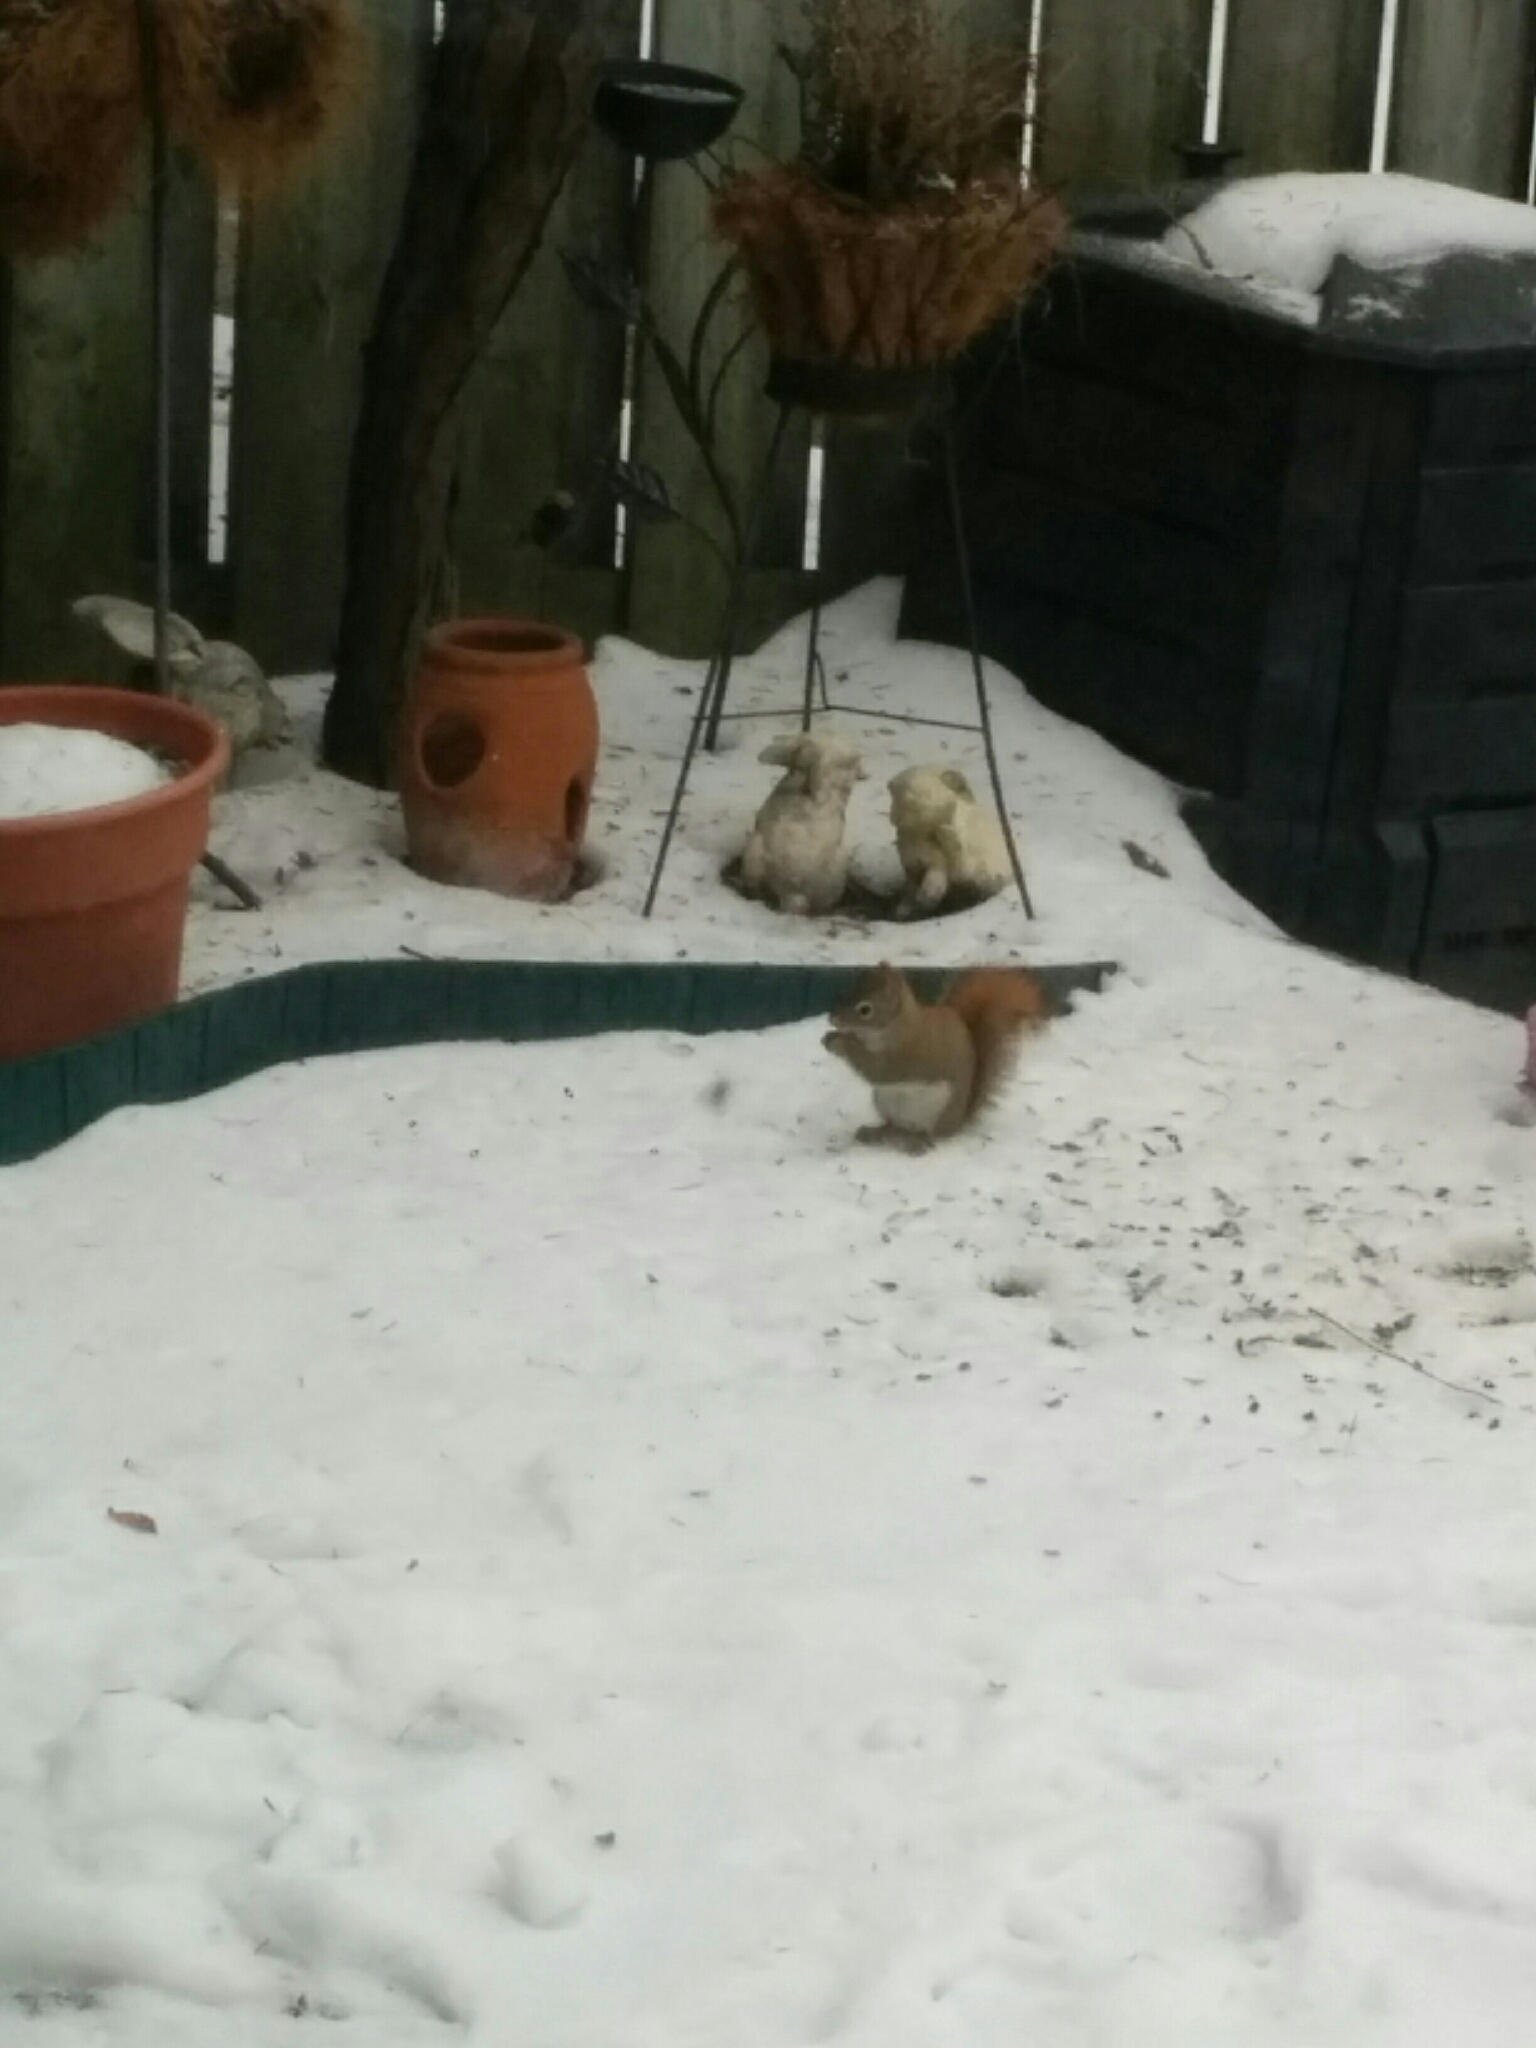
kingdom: Animalia
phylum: Chordata
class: Mammalia
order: Rodentia
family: Sciuridae
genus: Tamiasciurus
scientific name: Tamiasciurus hudsonicus
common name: Red squirrel
